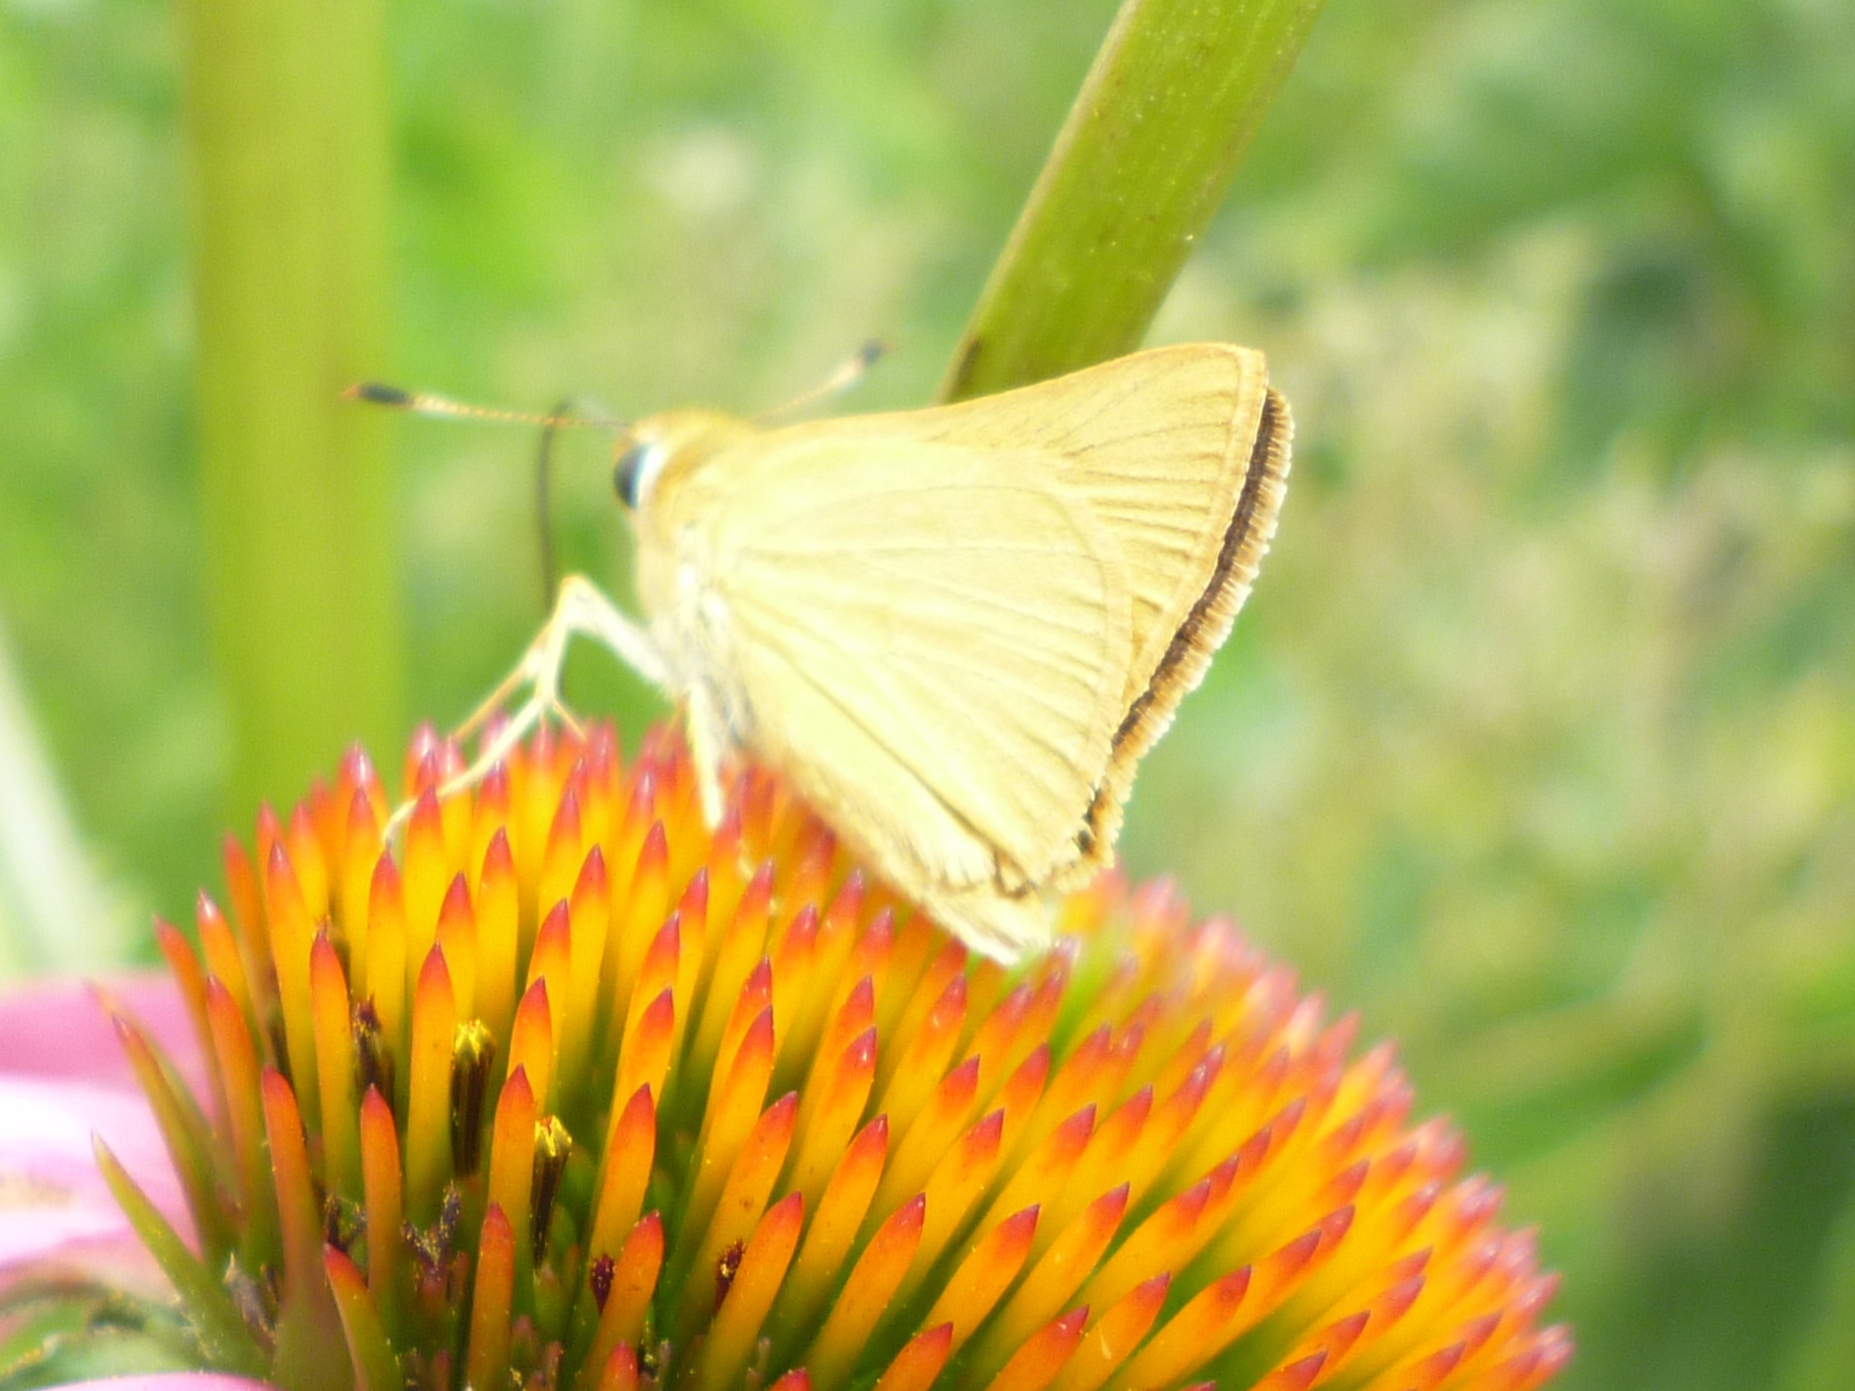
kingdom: Animalia
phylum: Arthropoda
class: Insecta
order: Lepidoptera
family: Hesperiidae
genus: Atrytone
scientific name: Atrytone delaware
